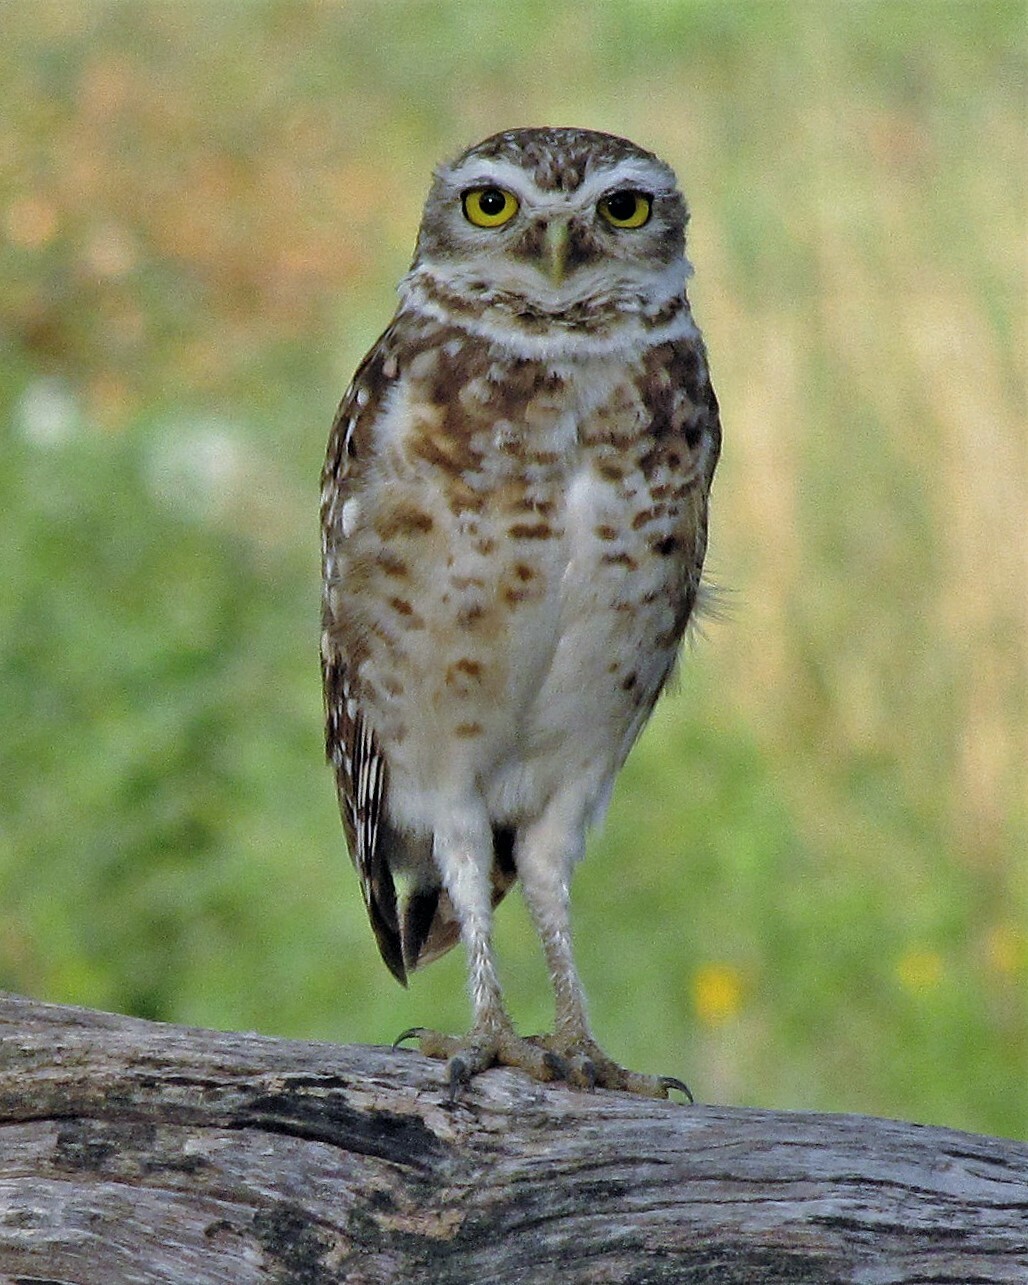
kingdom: Animalia
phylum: Chordata
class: Aves
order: Strigiformes
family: Strigidae
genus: Athene
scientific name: Athene cunicularia
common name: Burrowing owl
